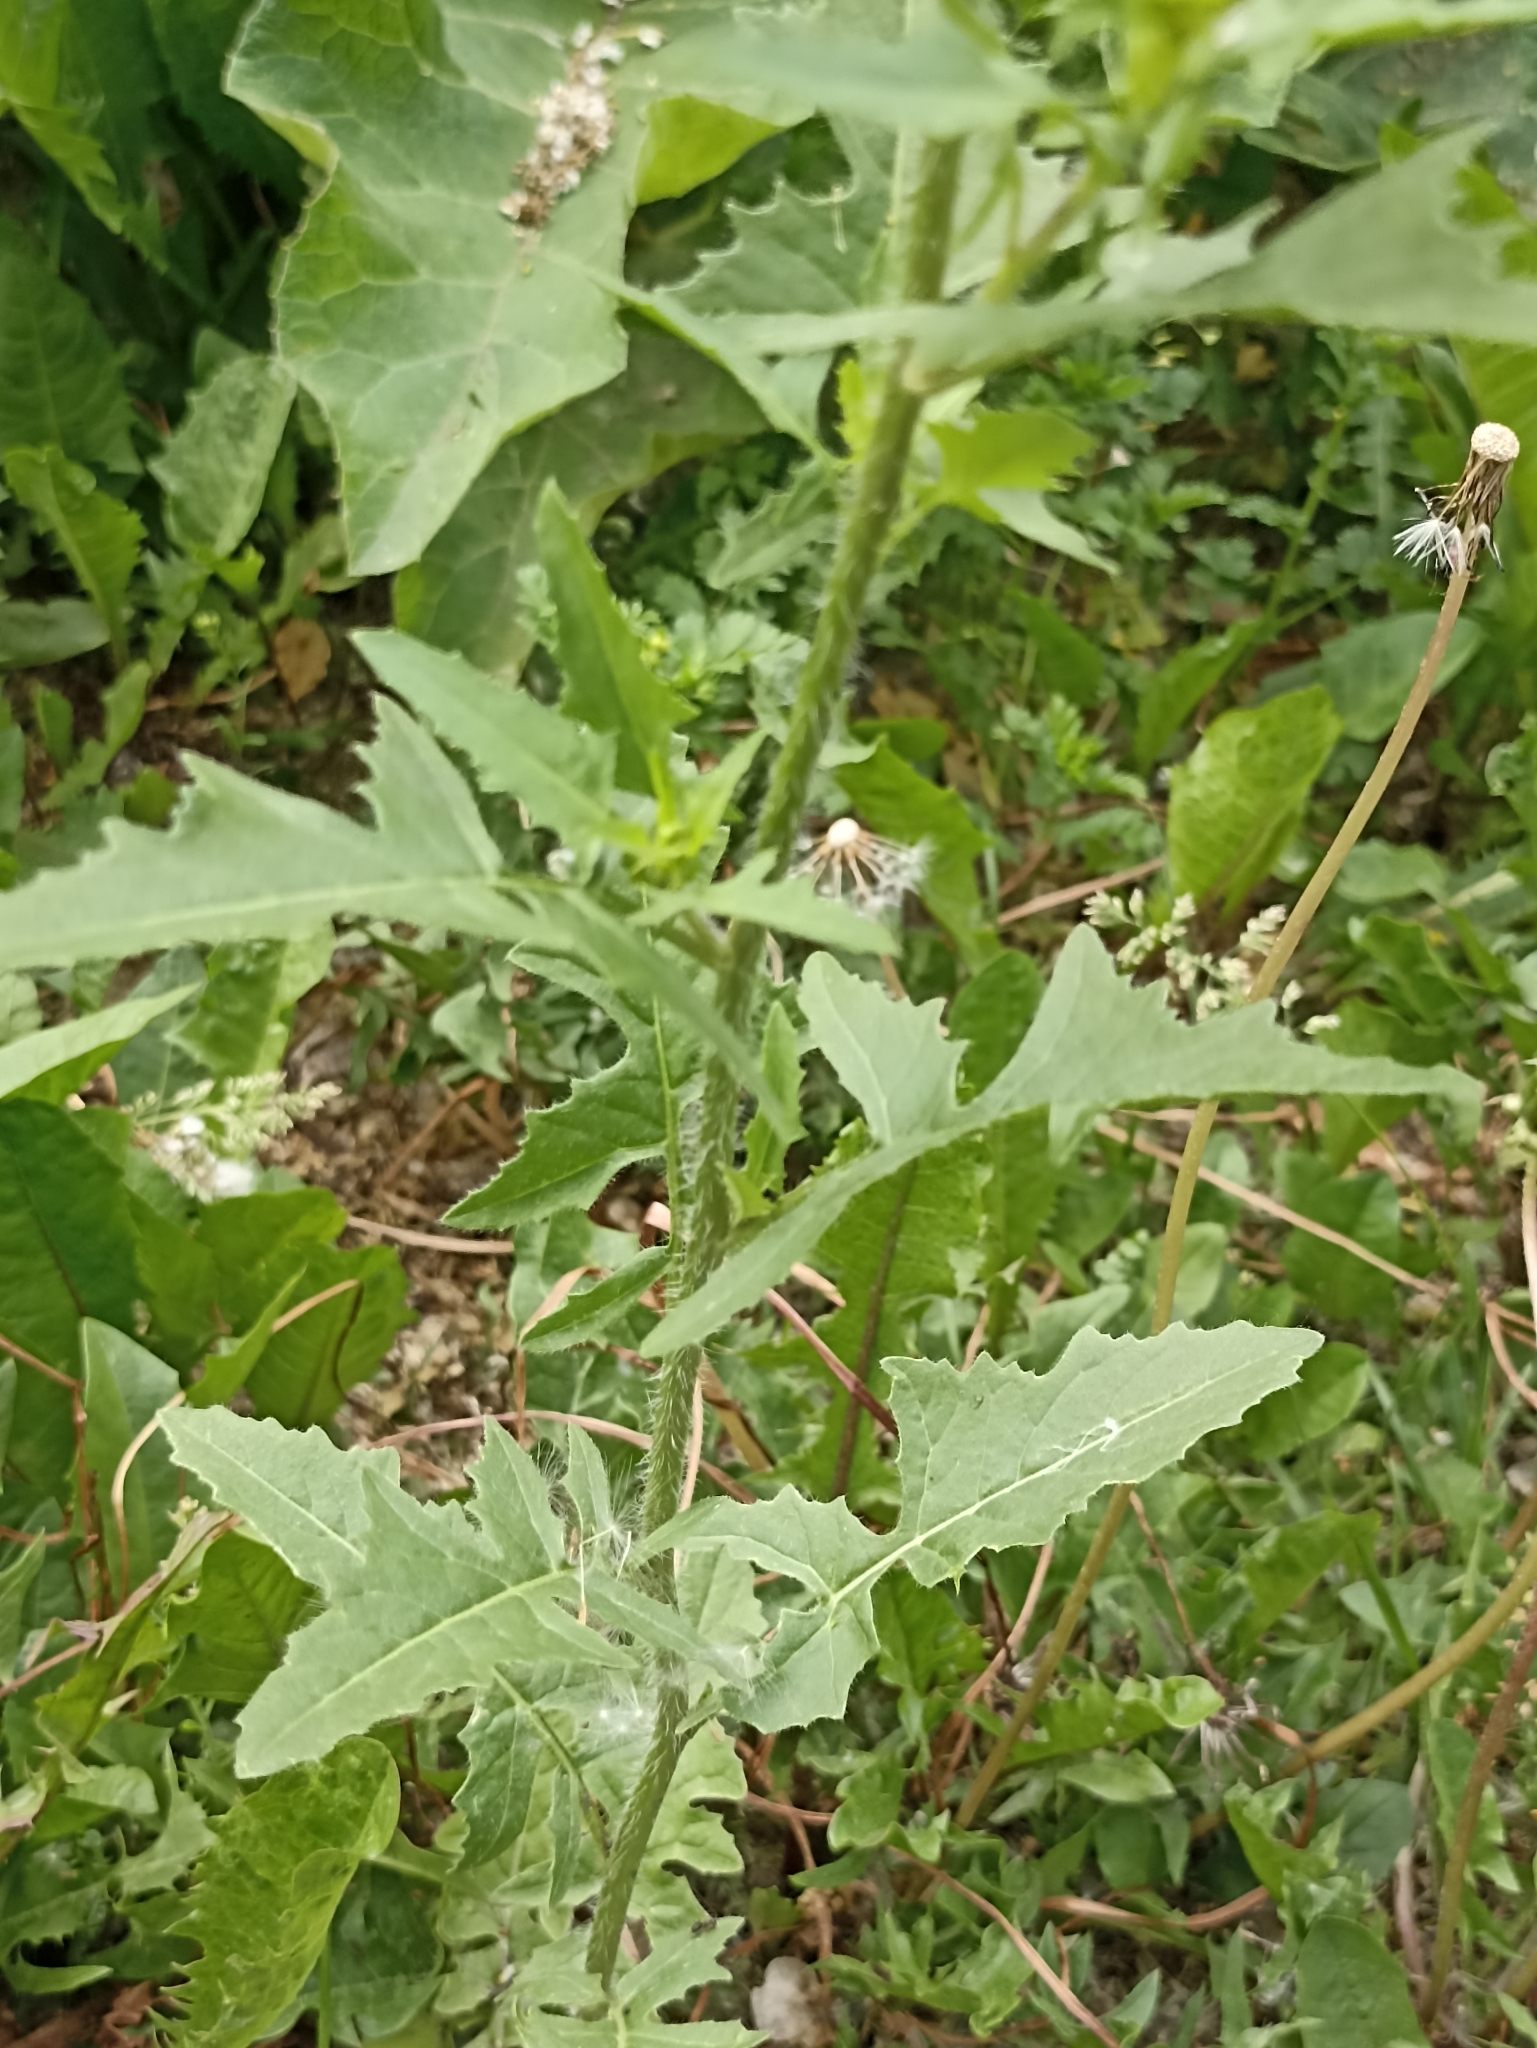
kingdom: Plantae
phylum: Tracheophyta
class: Magnoliopsida
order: Brassicales
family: Brassicaceae
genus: Sisymbrium
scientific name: Sisymbrium loeselii
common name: False london-rocket
